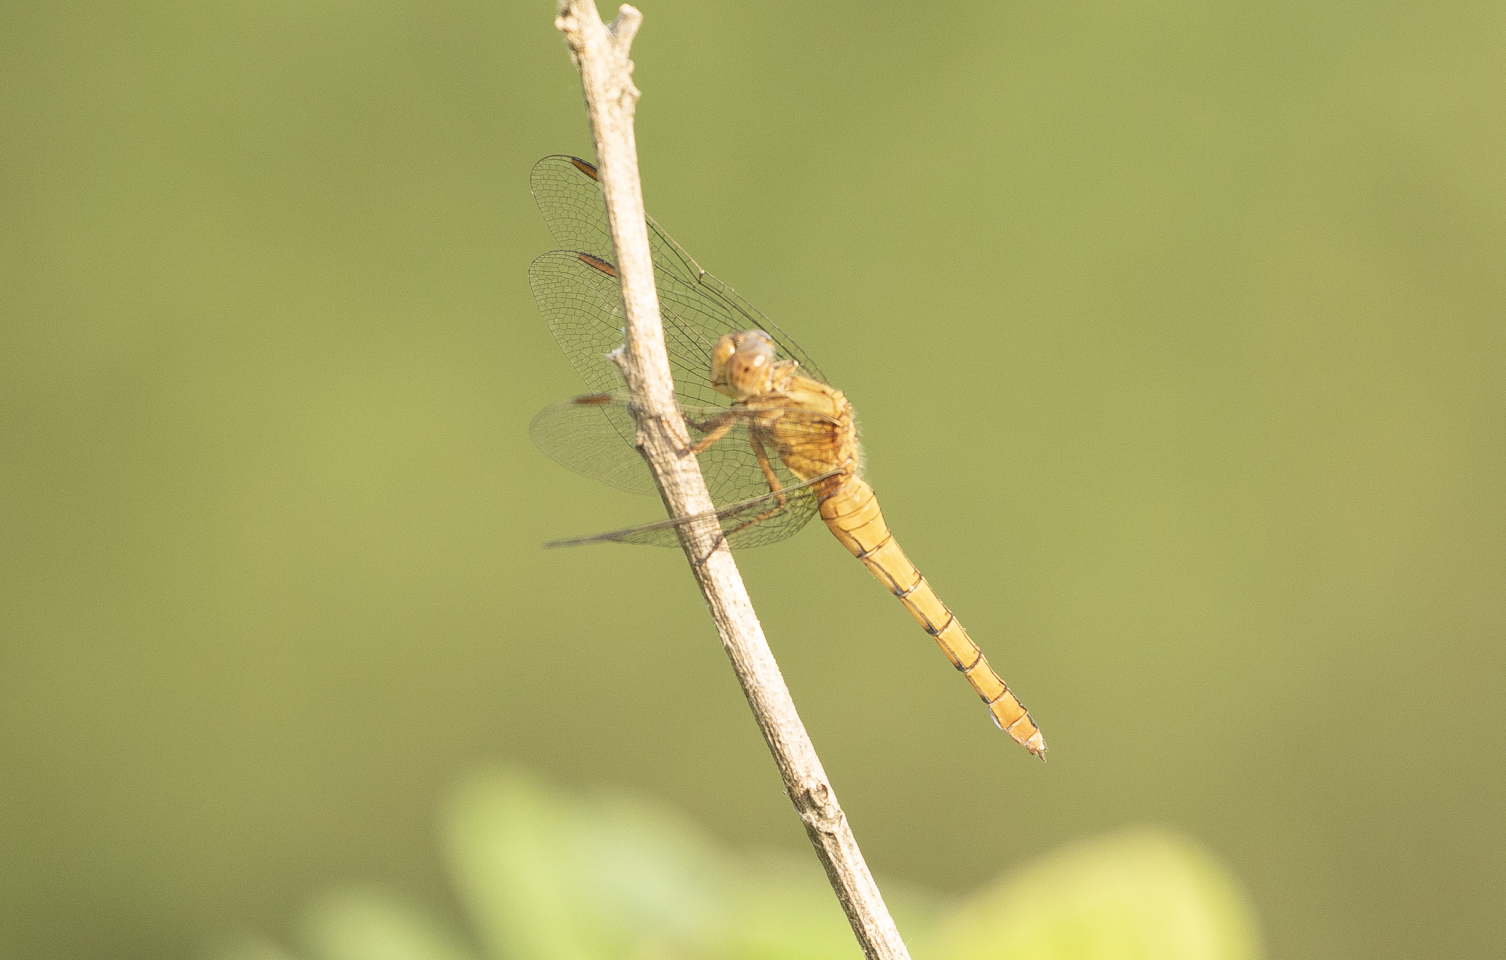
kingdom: Animalia
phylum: Arthropoda
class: Insecta
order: Odonata
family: Libellulidae
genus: Orthetrum
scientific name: Orthetrum coerulescens
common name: Keeled skimmer
